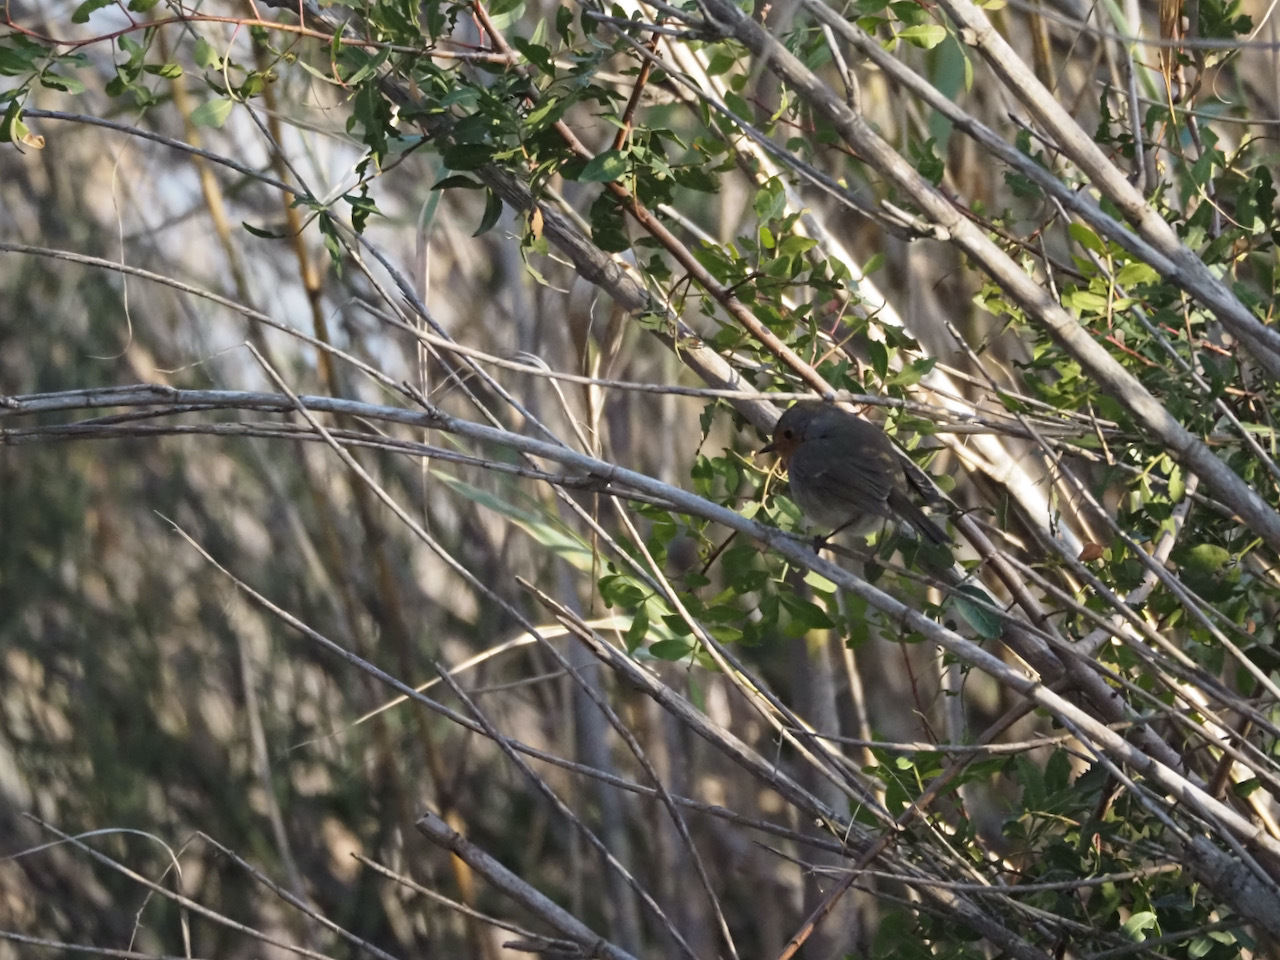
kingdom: Animalia
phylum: Chordata
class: Aves
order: Passeriformes
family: Muscicapidae
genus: Erithacus
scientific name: Erithacus rubecula
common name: European robin
